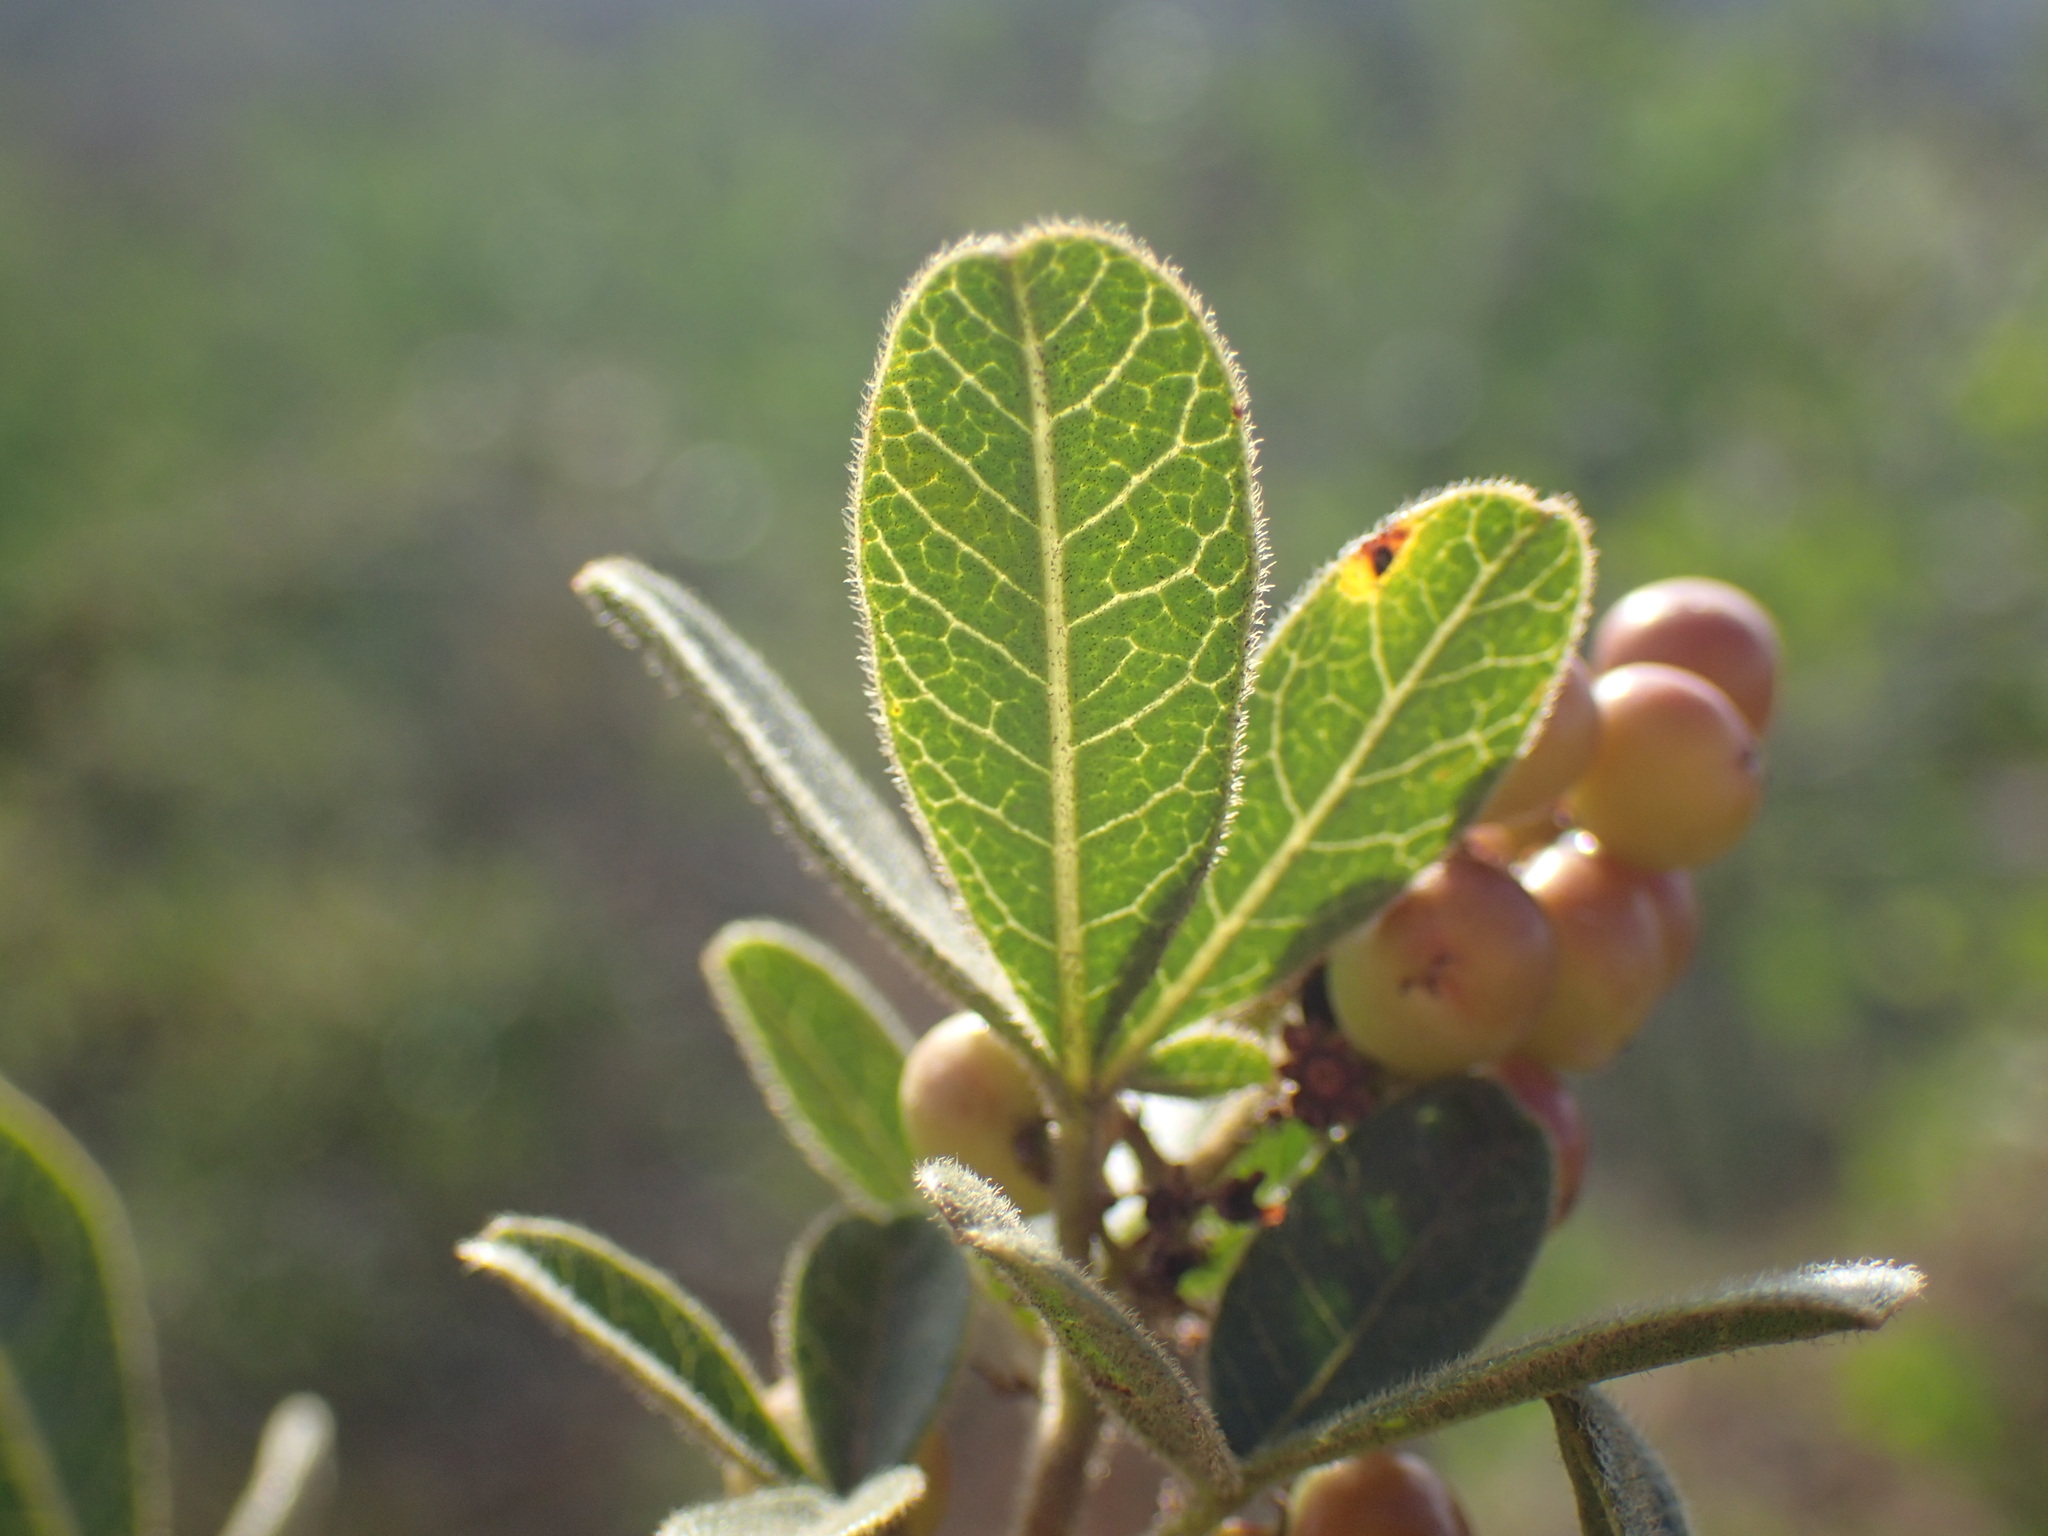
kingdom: Plantae
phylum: Tracheophyta
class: Magnoliopsida
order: Sapindales
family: Anacardiaceae
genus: Searsia
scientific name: Searsia laevigata
